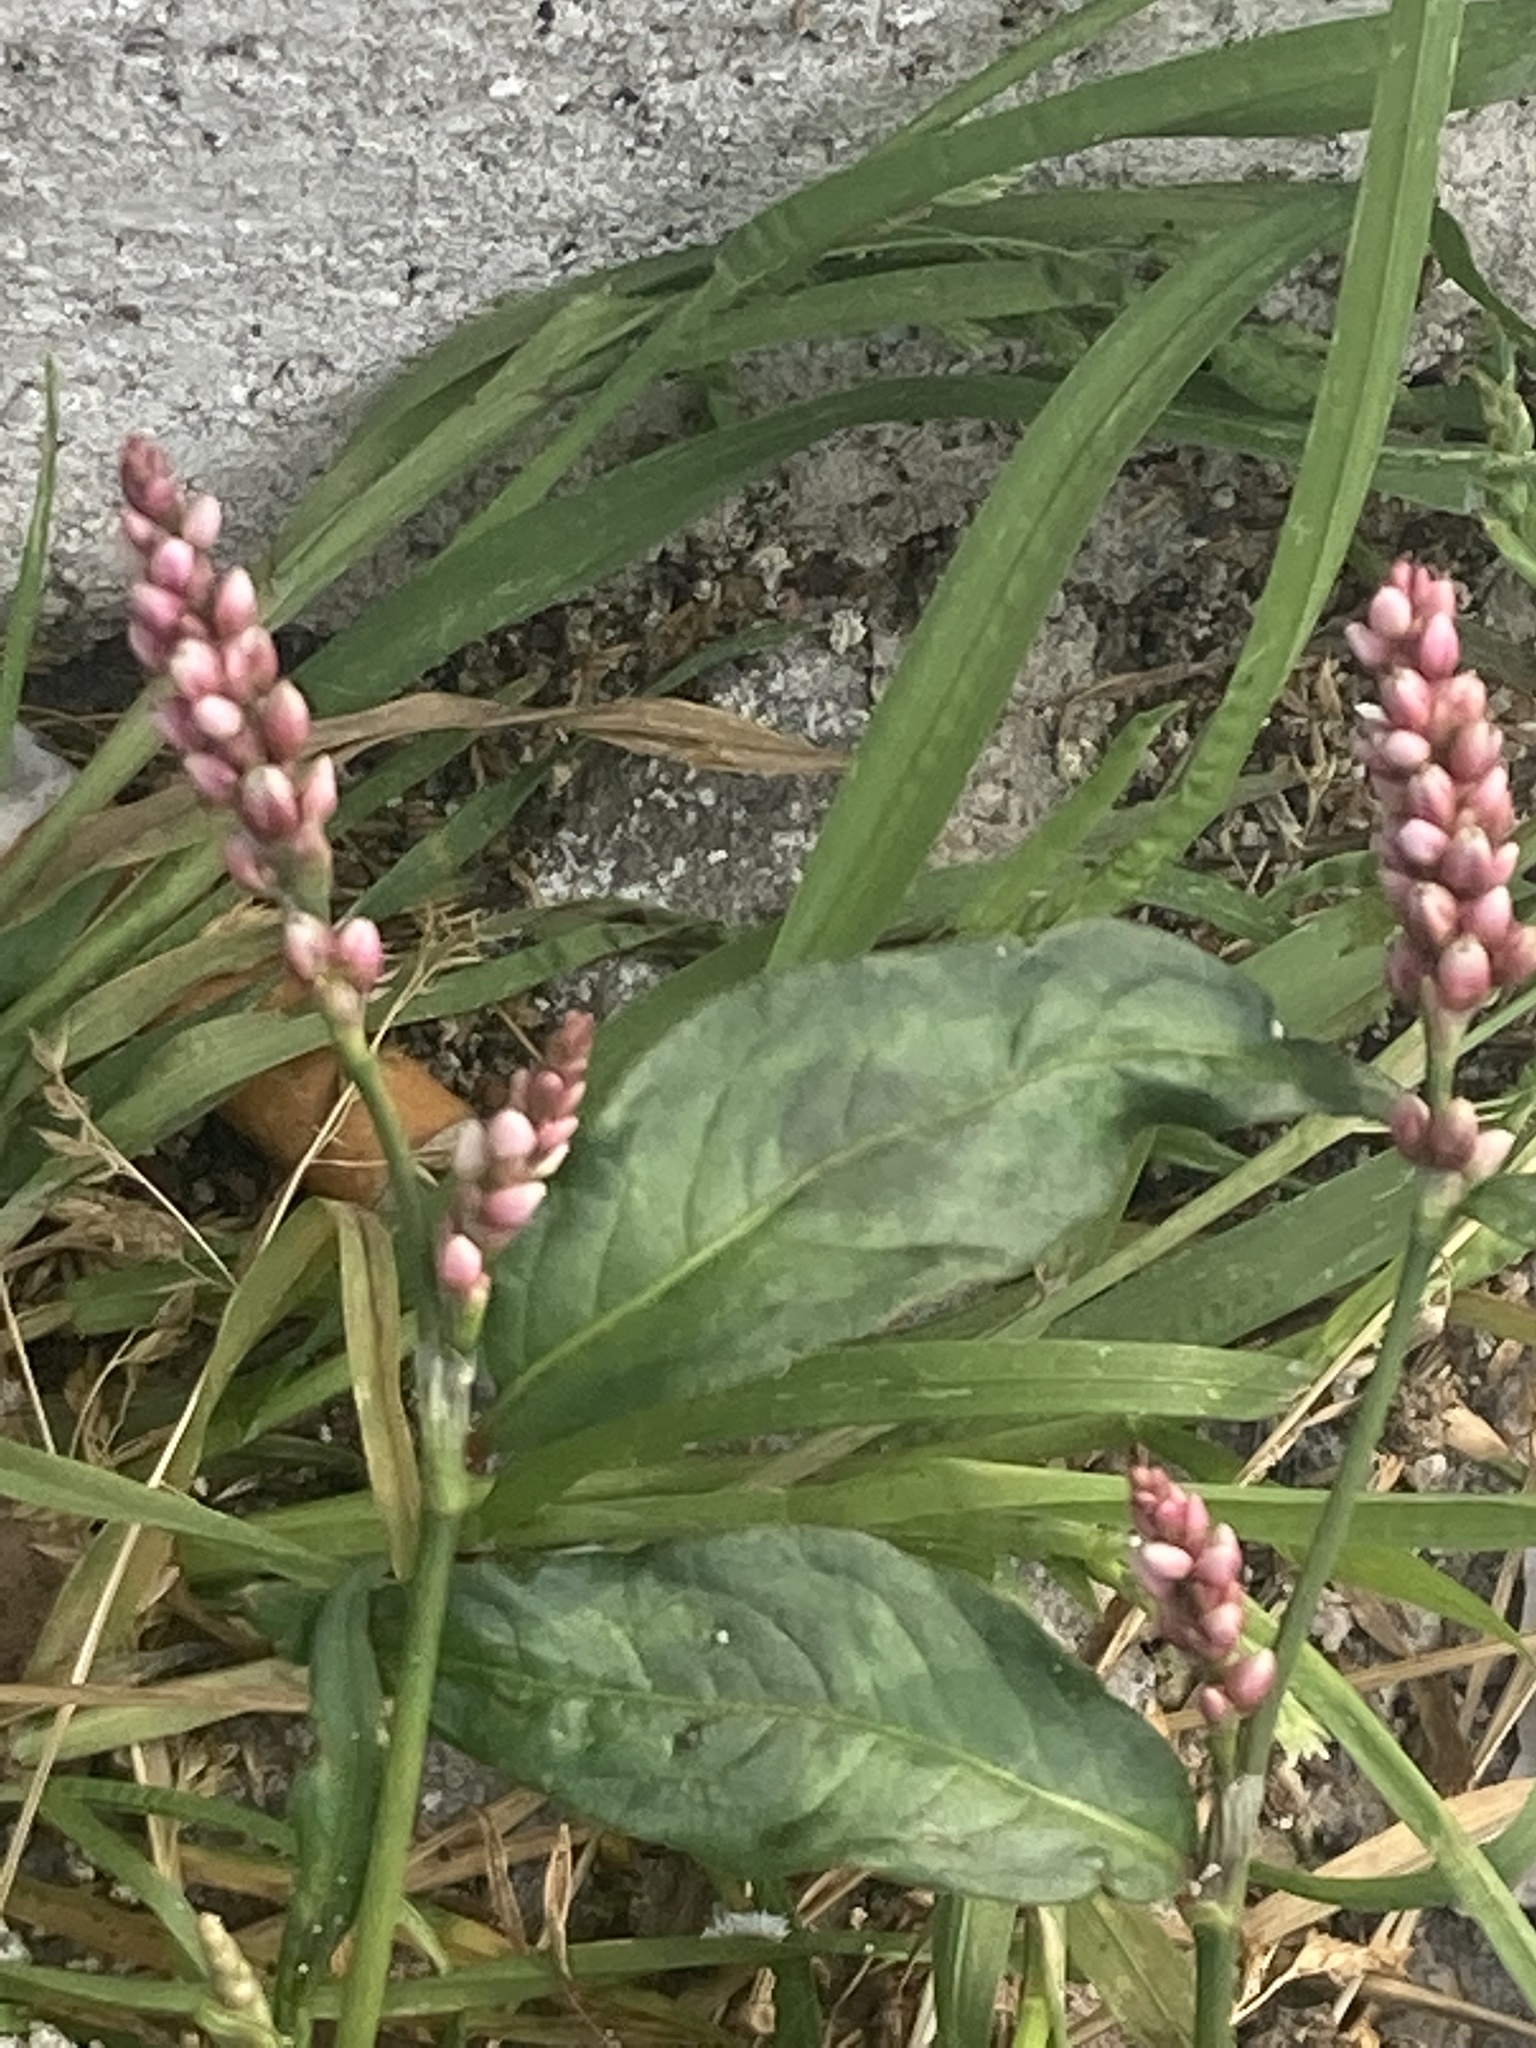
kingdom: Plantae
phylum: Tracheophyta
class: Magnoliopsida
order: Caryophyllales
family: Polygonaceae
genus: Persicaria
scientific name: Persicaria maculosa
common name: Redshank
